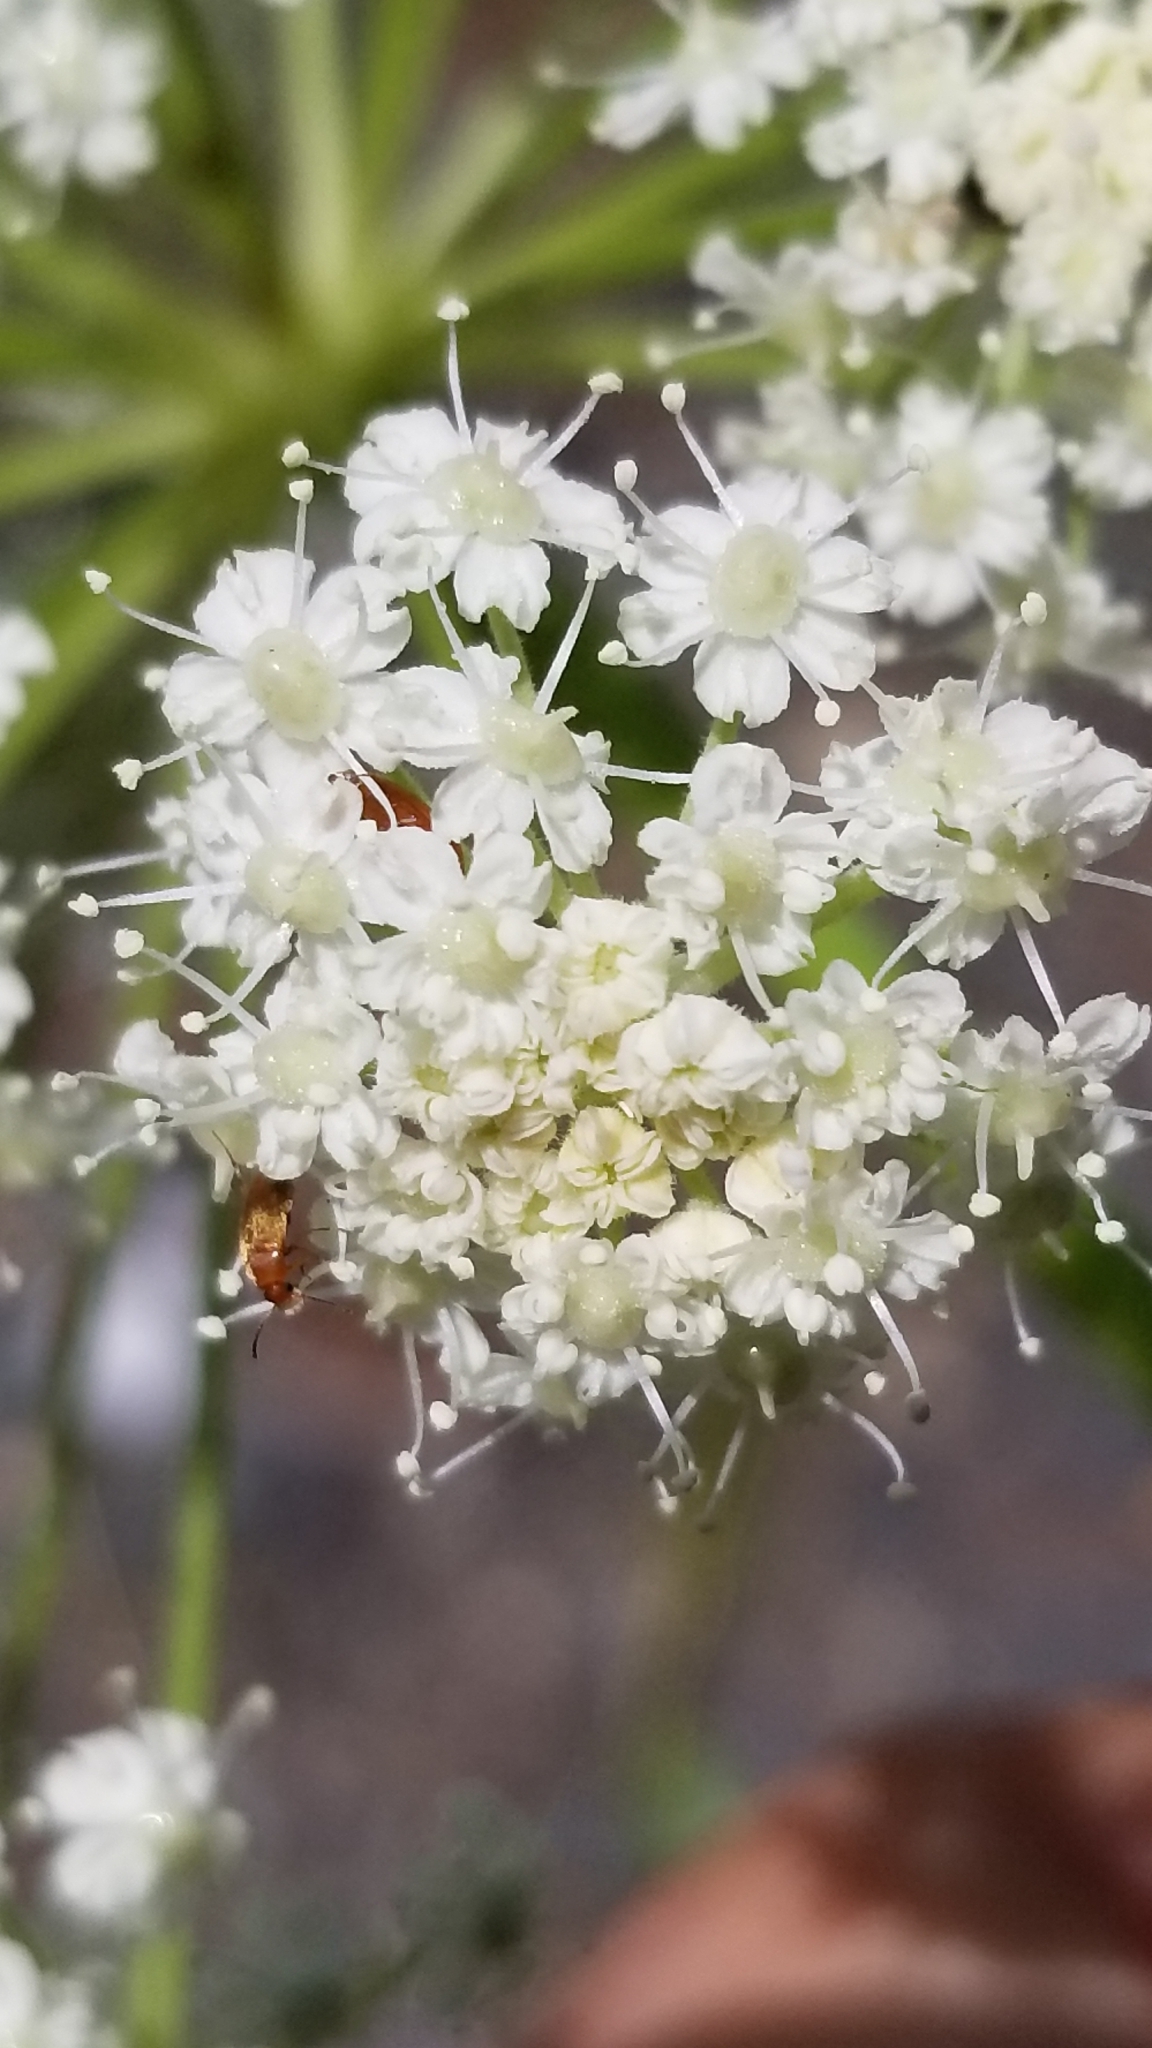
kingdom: Plantae
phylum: Tracheophyta
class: Magnoliopsida
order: Apiales
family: Apiaceae
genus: Angelica
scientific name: Angelica breweri
